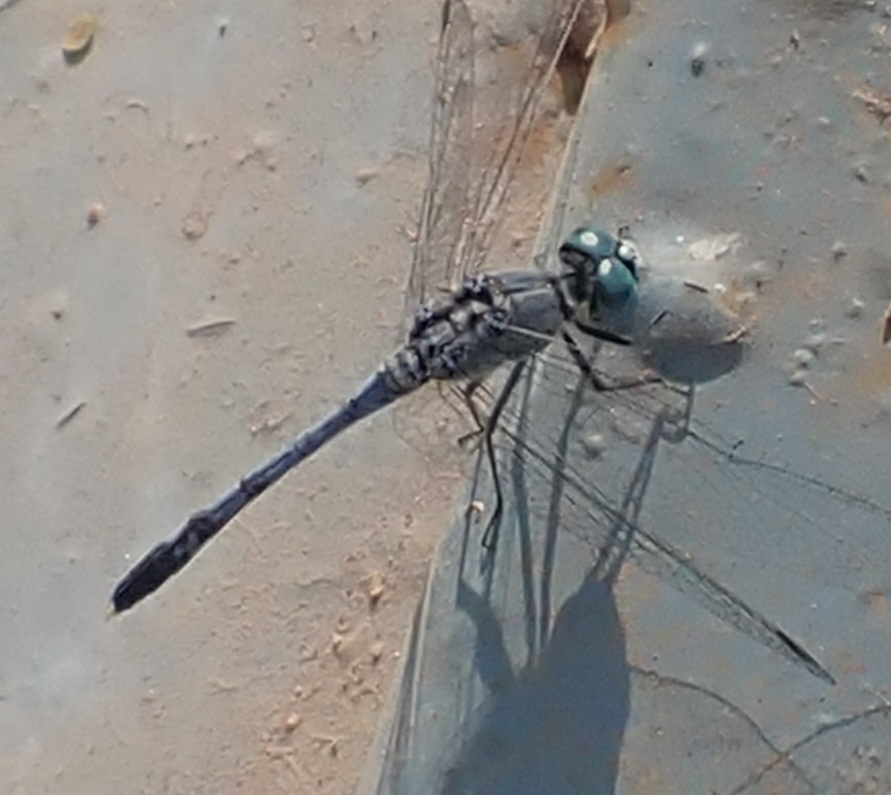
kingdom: Animalia
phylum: Arthropoda
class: Insecta
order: Odonata
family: Libellulidae
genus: Diplacodes
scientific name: Diplacodes trivialis
